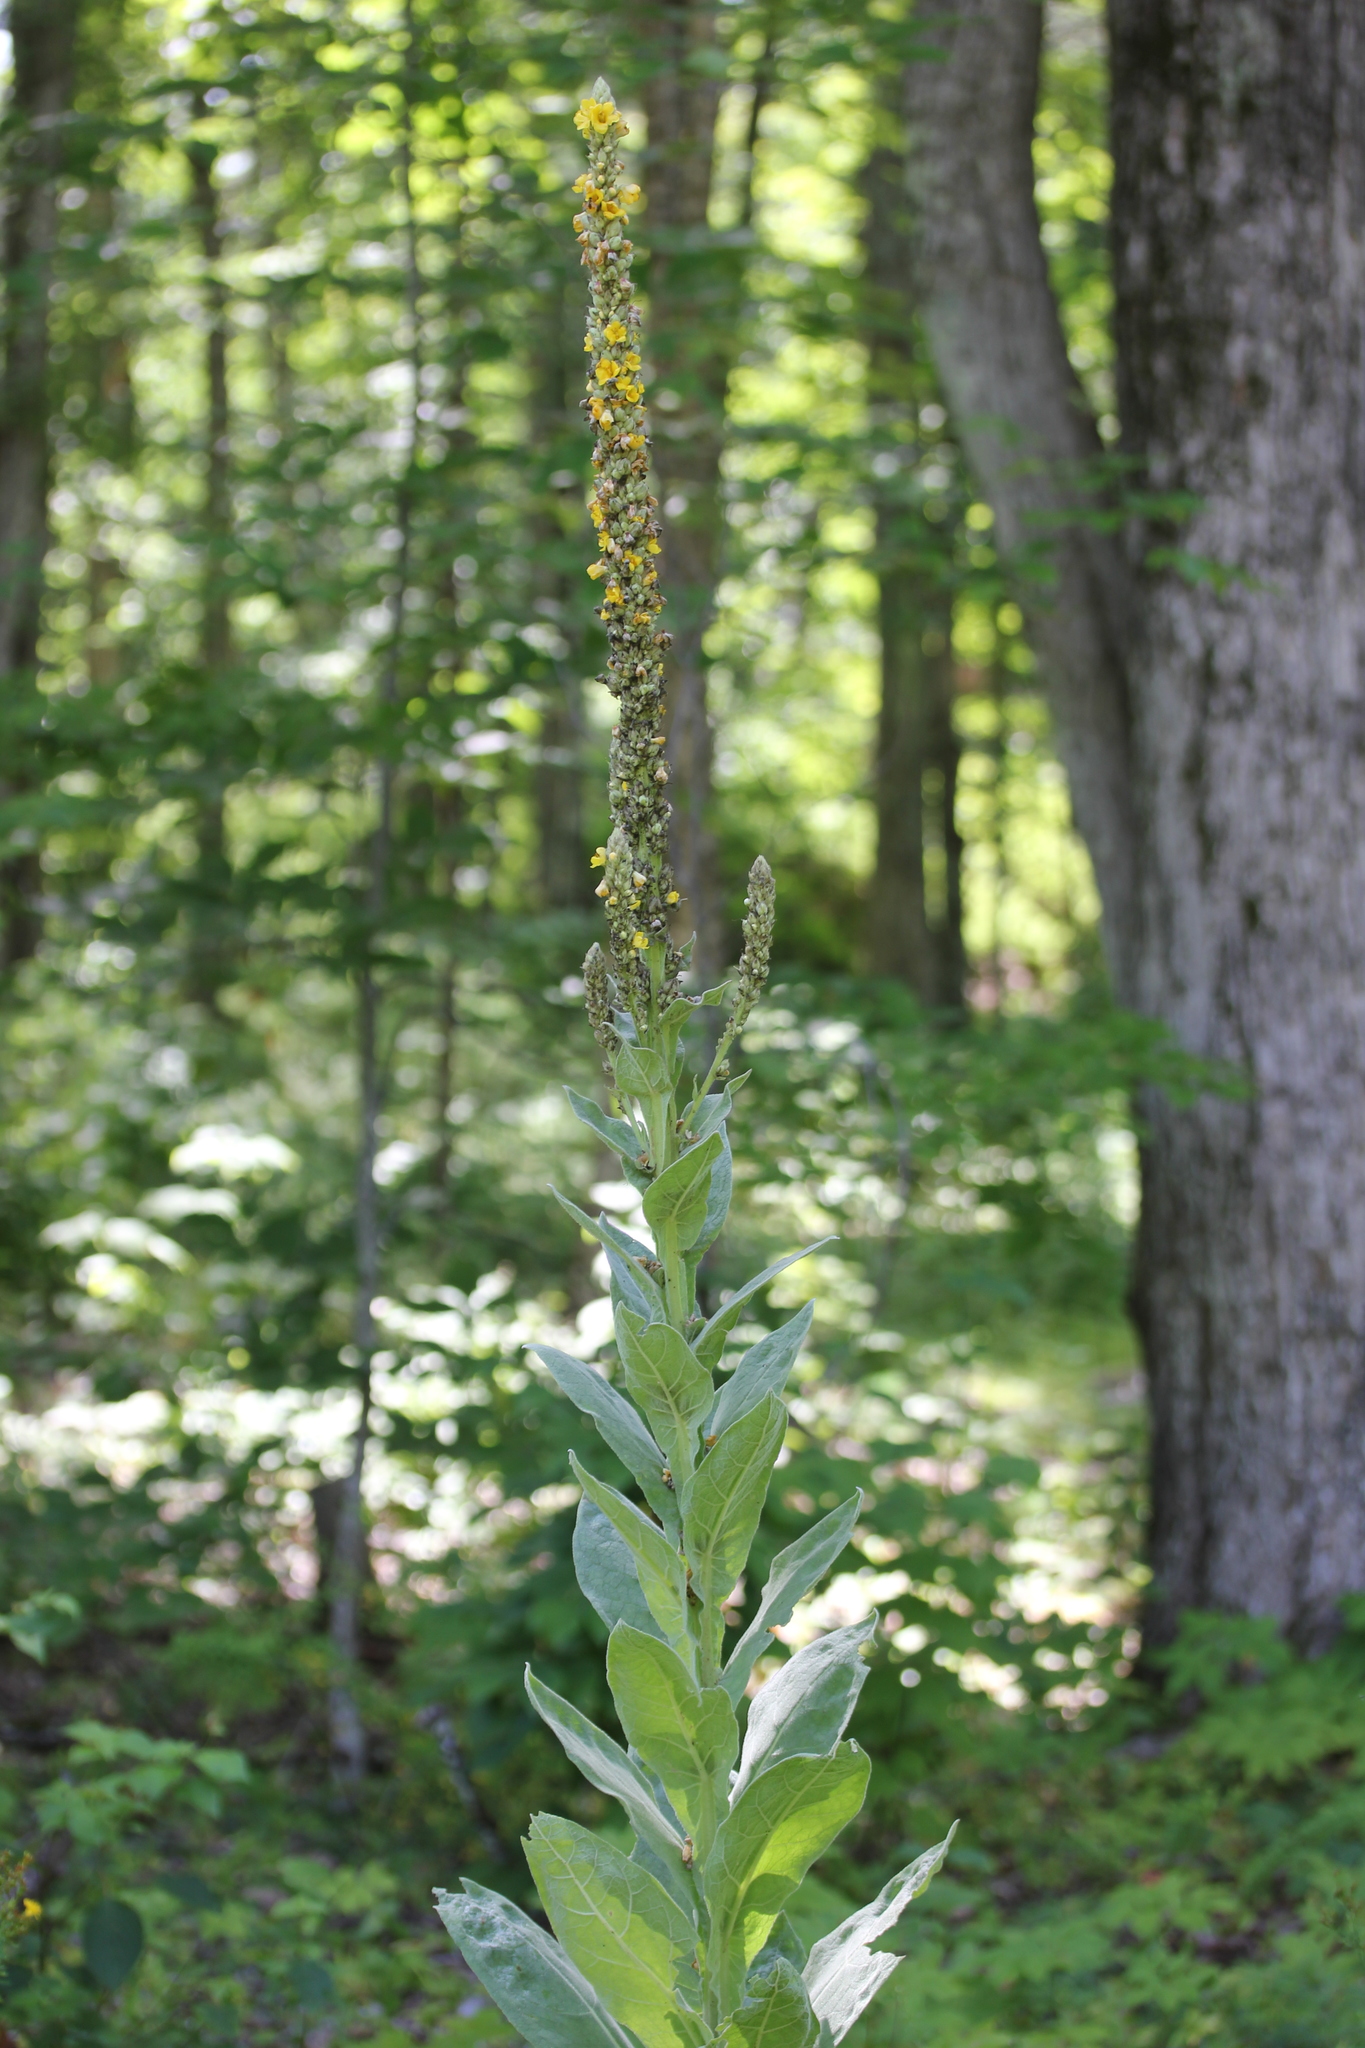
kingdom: Plantae
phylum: Tracheophyta
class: Magnoliopsida
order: Lamiales
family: Scrophulariaceae
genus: Verbascum
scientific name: Verbascum thapsus
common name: Common mullein
